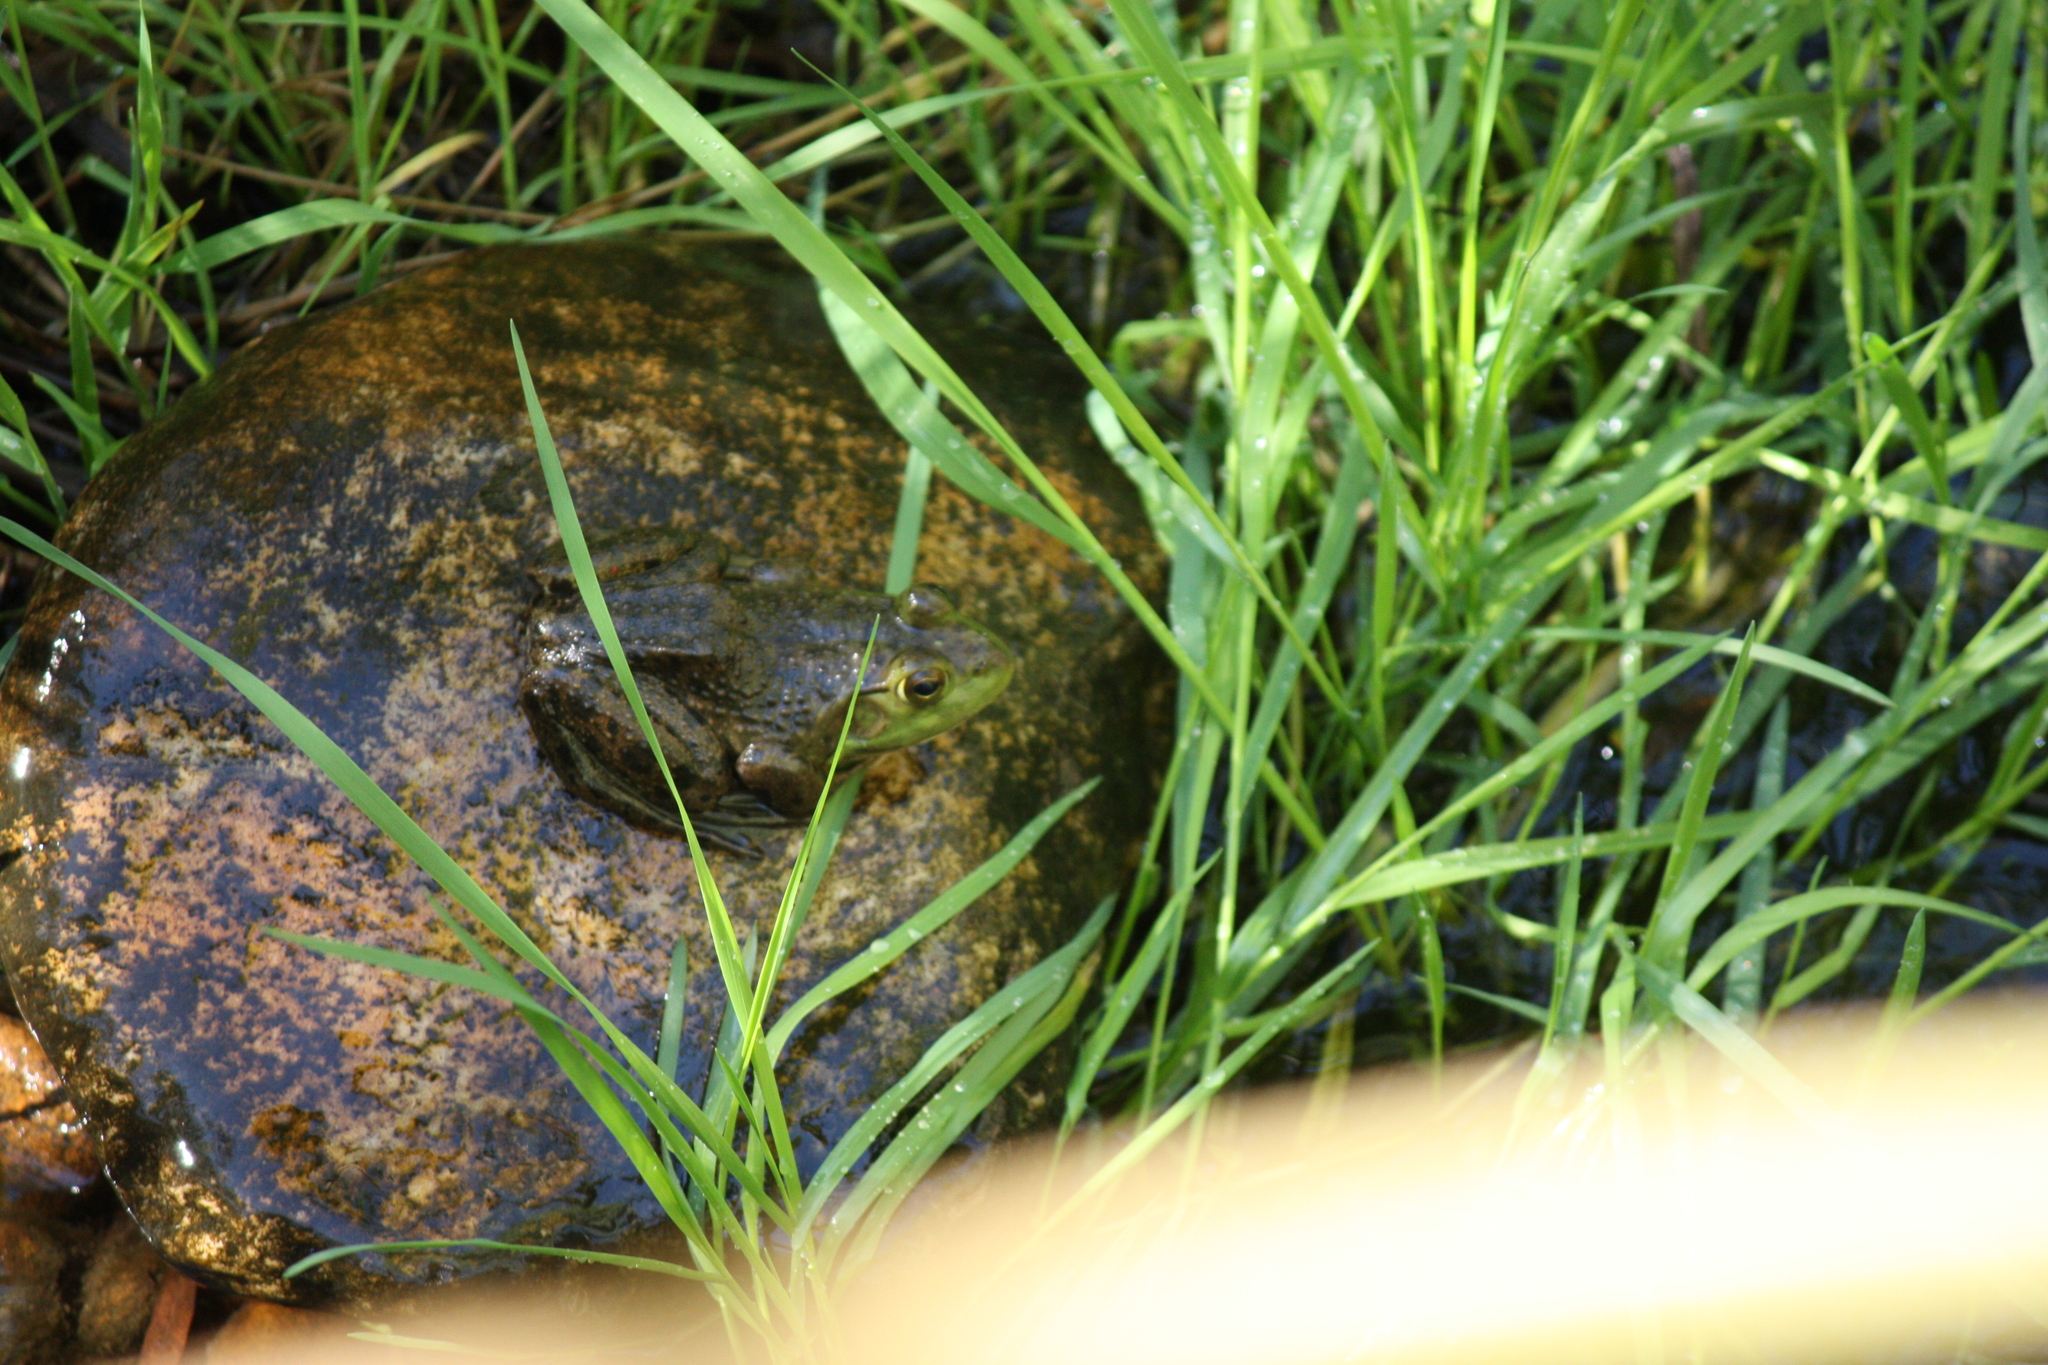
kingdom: Animalia
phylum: Chordata
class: Amphibia
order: Anura
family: Ranidae
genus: Lithobates
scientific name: Lithobates catesbeianus
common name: American bullfrog
